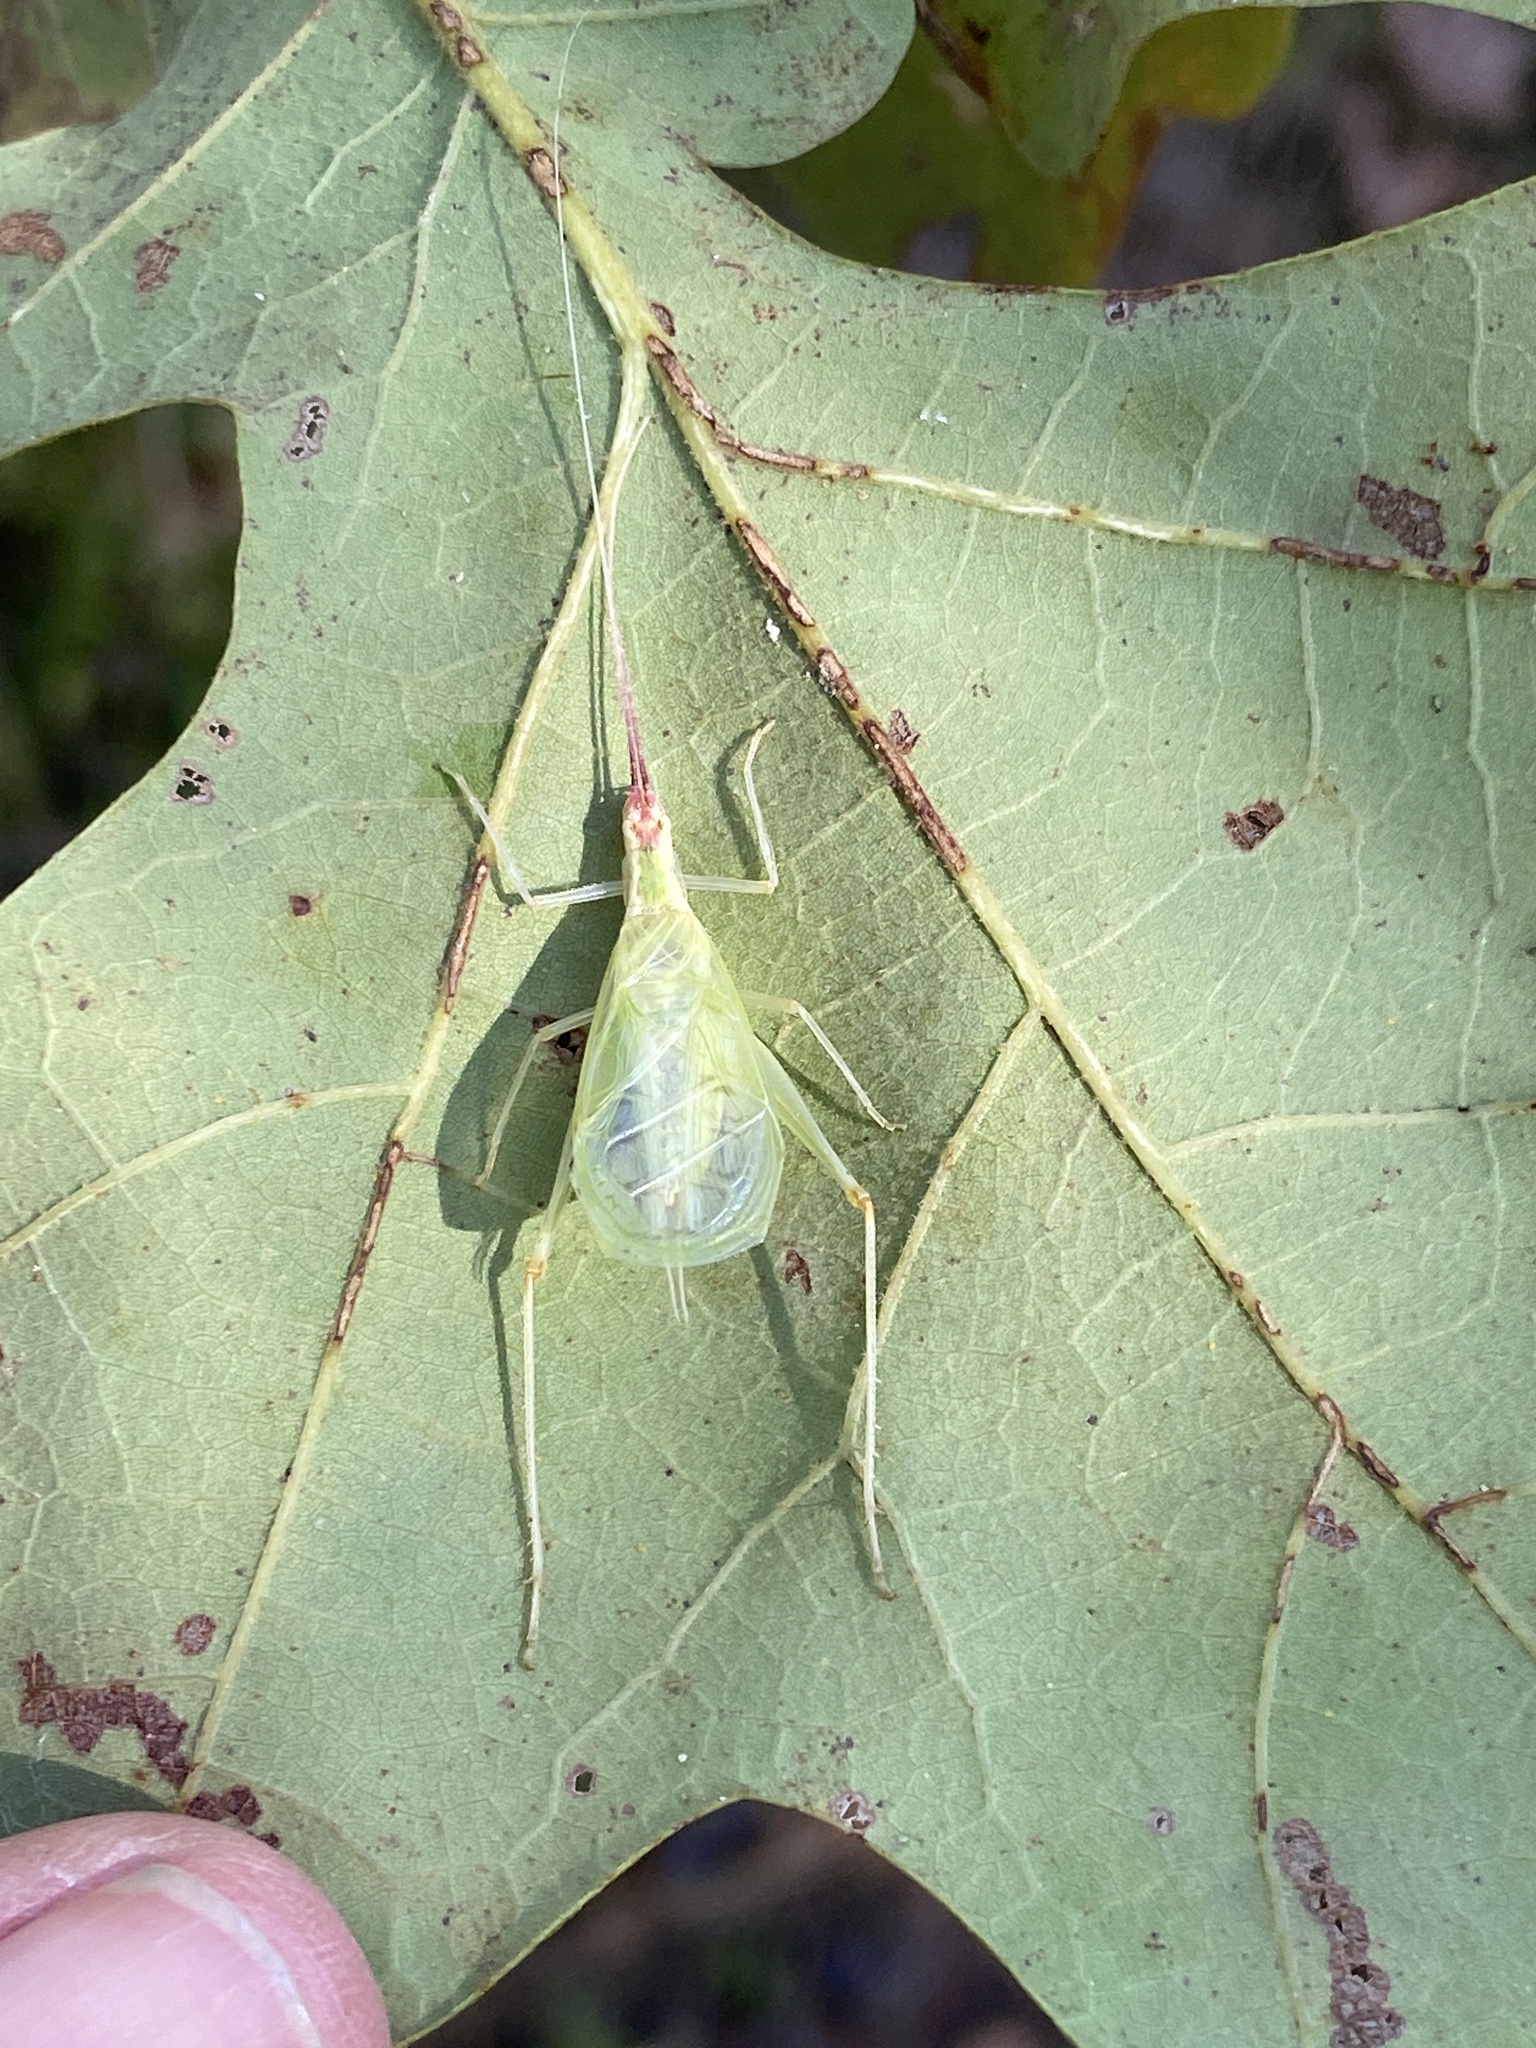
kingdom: Animalia
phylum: Arthropoda
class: Insecta
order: Orthoptera
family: Gryllidae
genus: Oecanthus
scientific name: Oecanthus latipennis
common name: Broad-winged tree cricket
